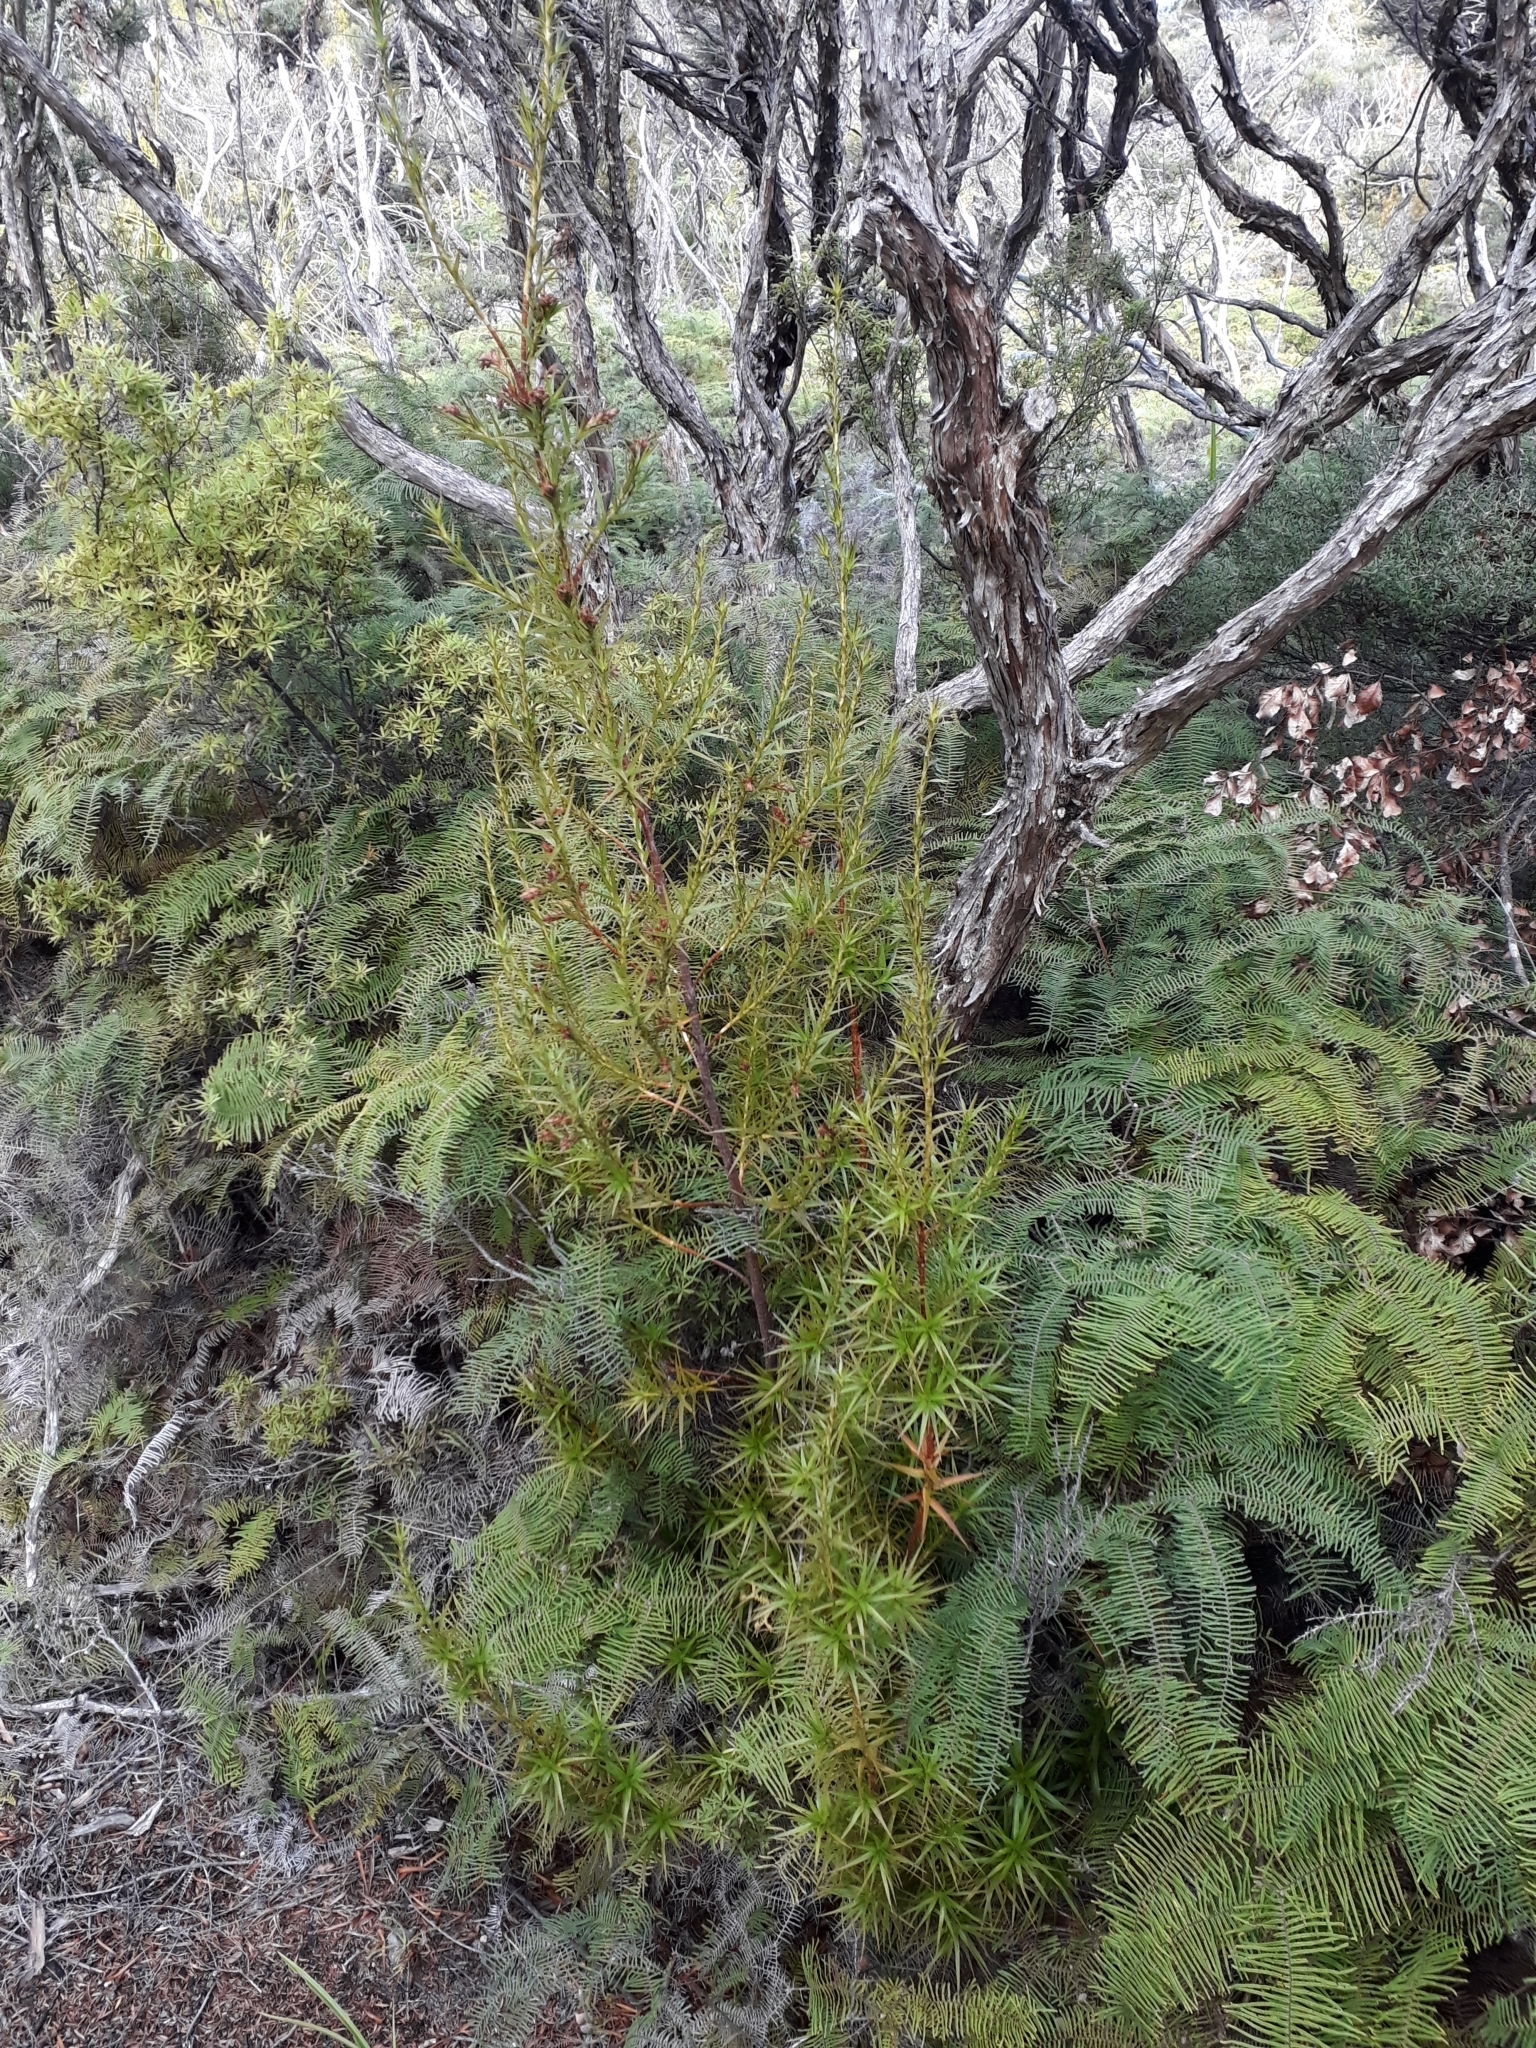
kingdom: Plantae
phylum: Tracheophyta
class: Magnoliopsida
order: Ericales
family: Ericaceae
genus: Dracophyllum
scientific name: Dracophyllum patens
